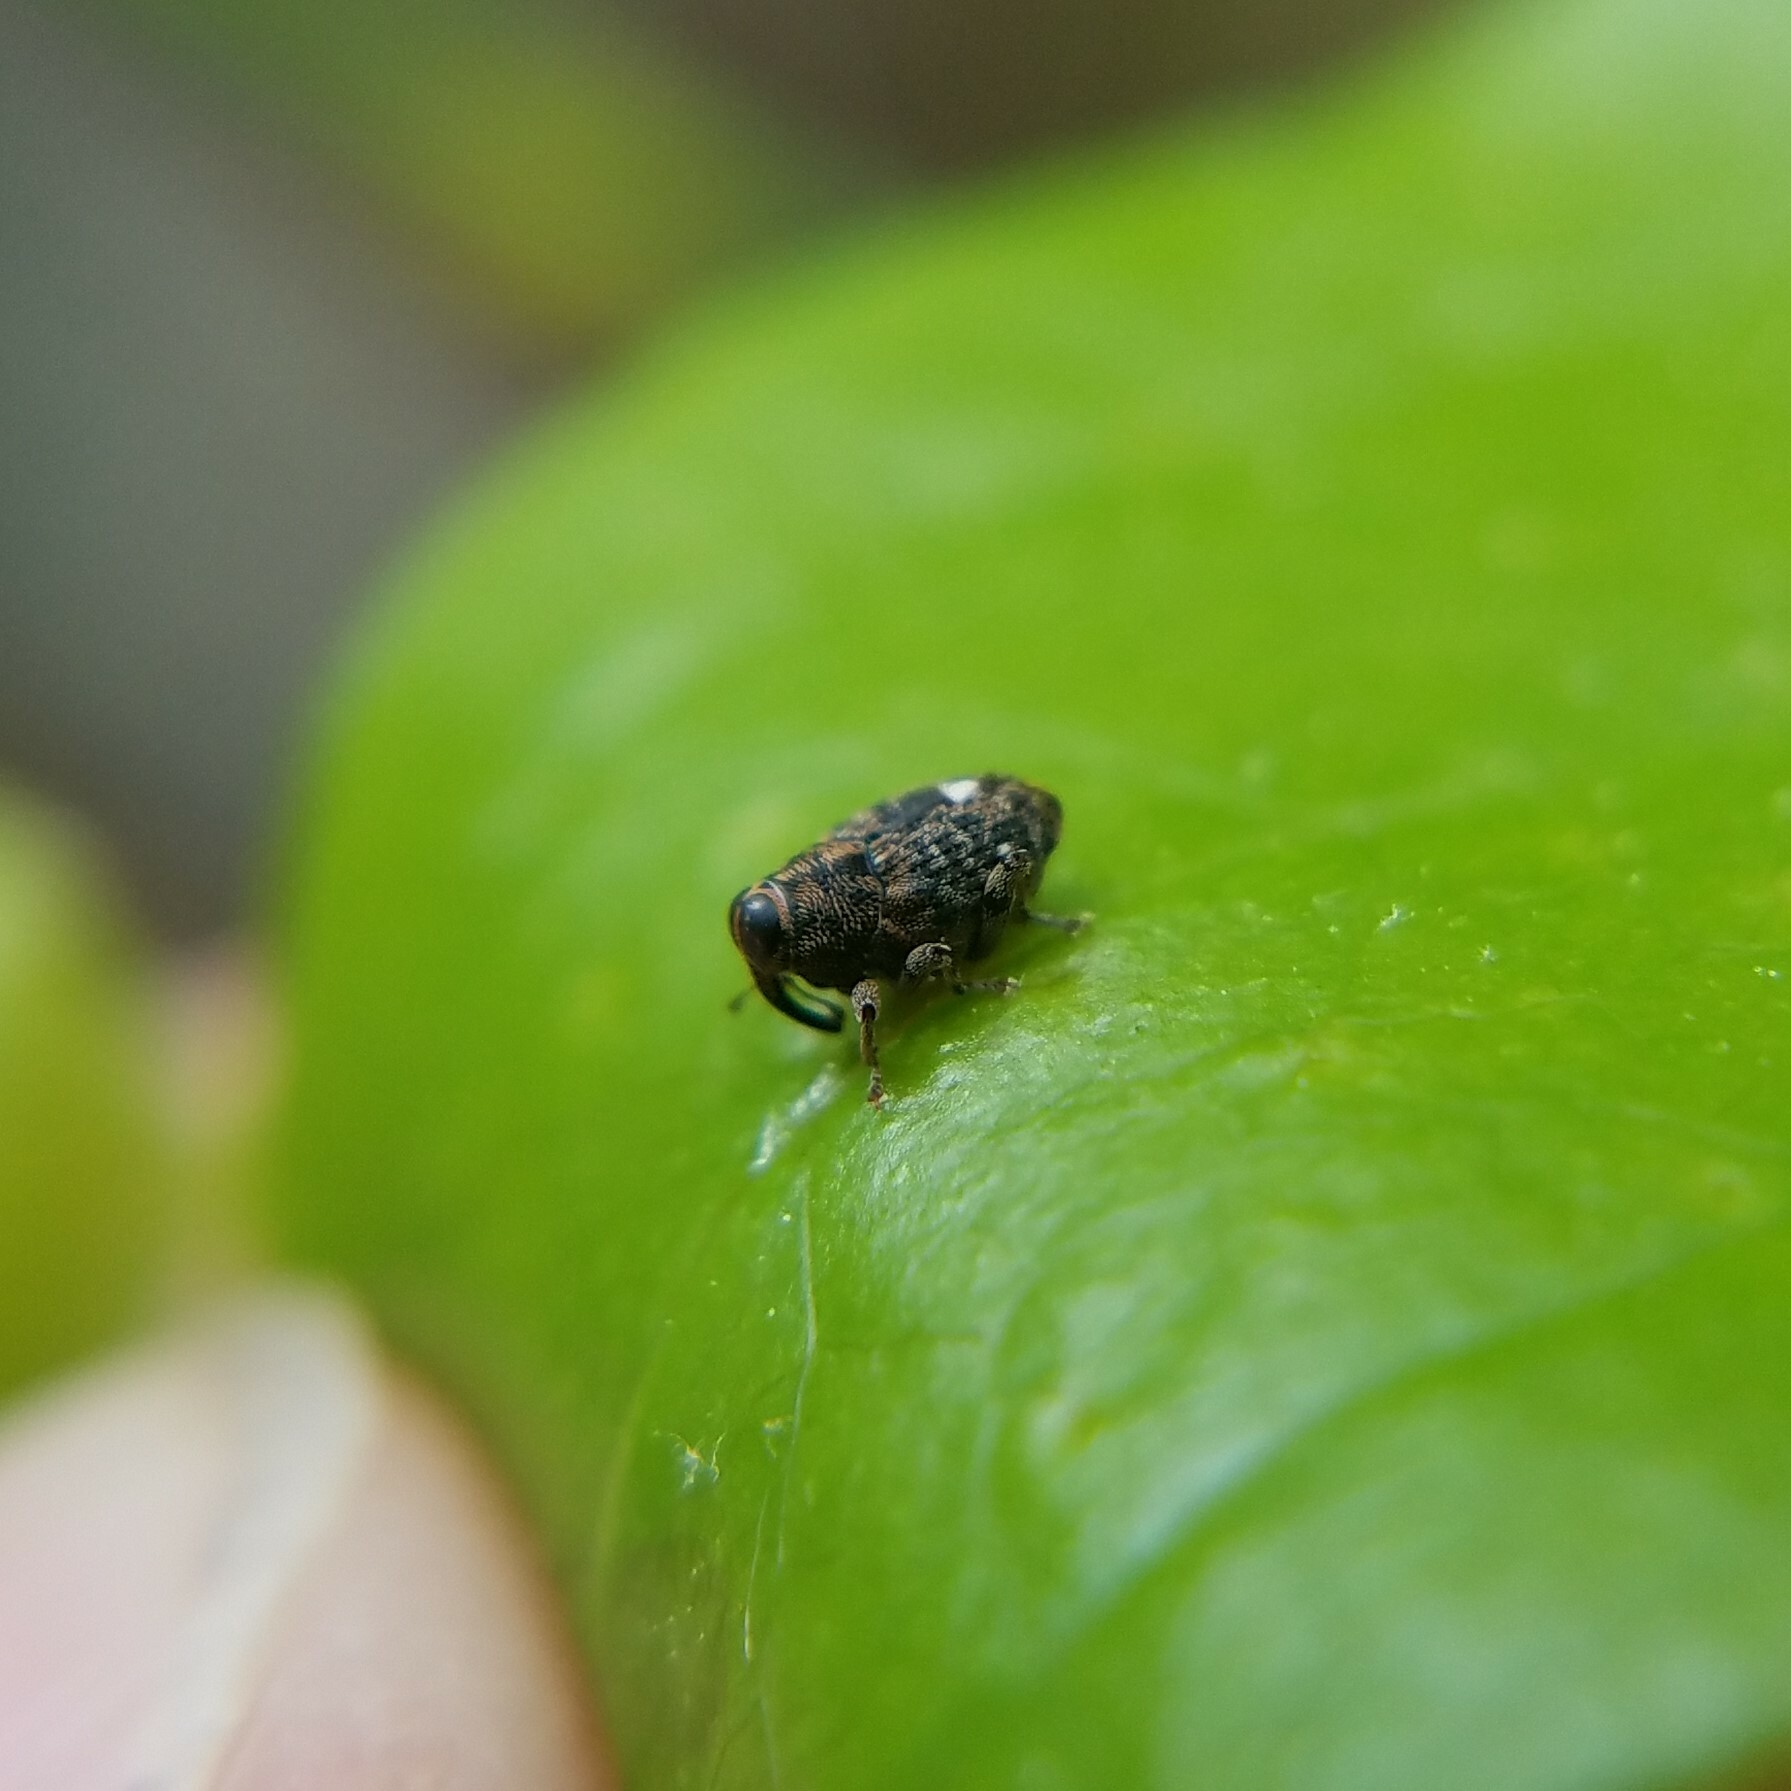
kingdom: Animalia
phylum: Arthropoda
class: Insecta
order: Coleoptera
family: Curculionidae
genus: Lechriops
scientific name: Lechriops oculatus
